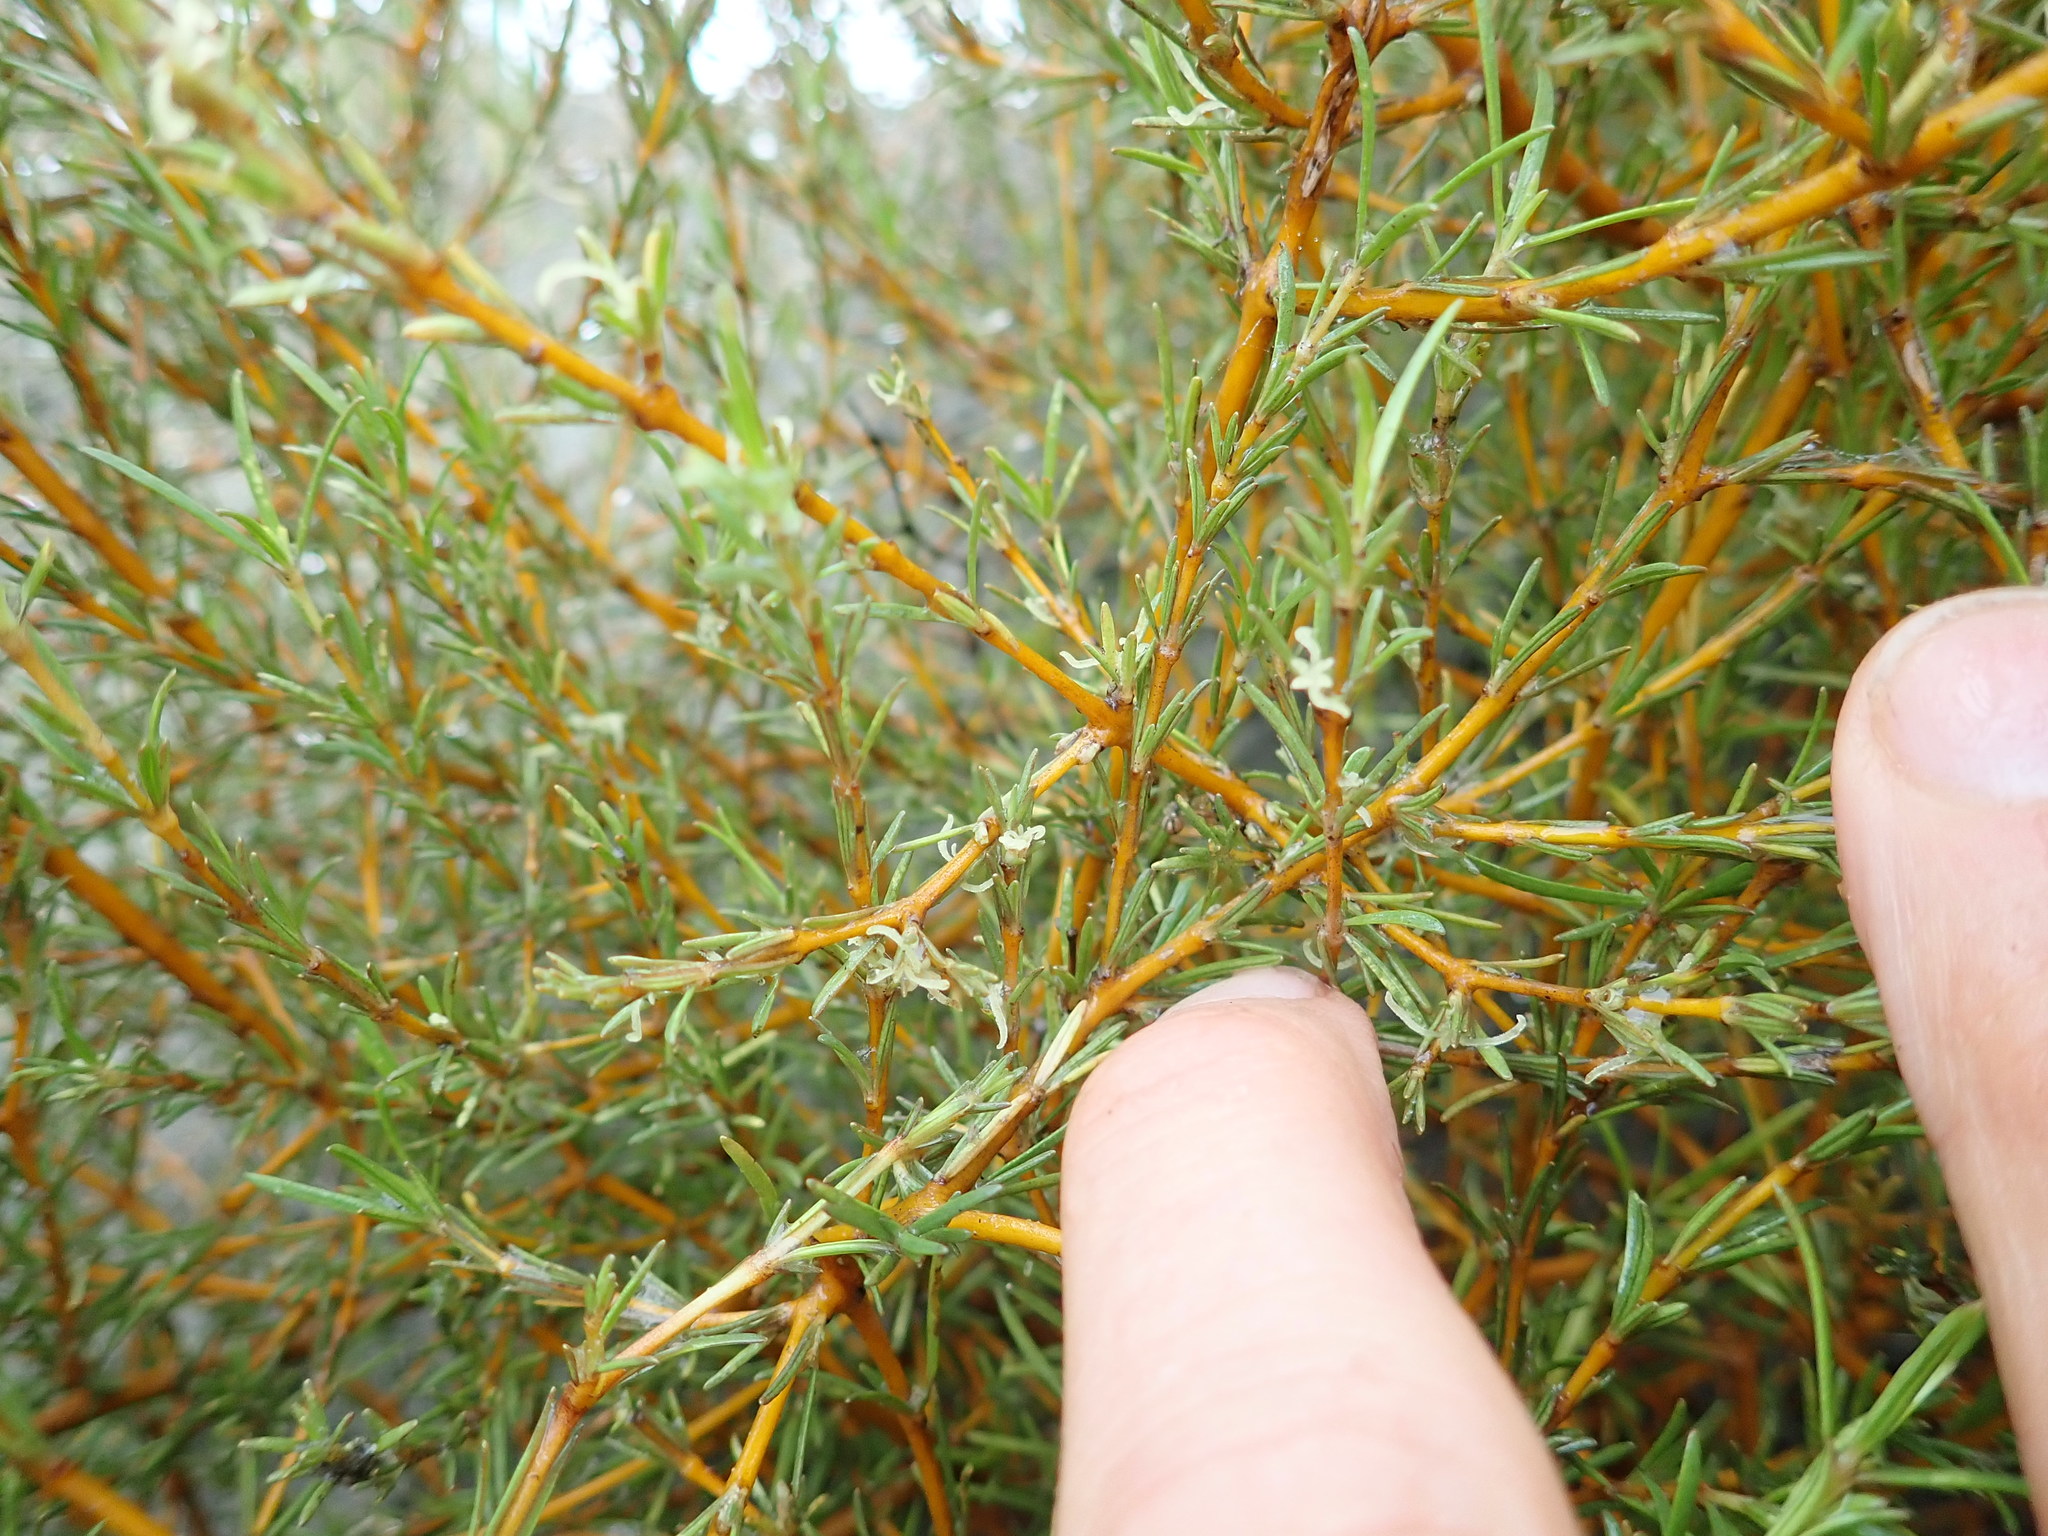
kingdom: Plantae
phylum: Tracheophyta
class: Magnoliopsida
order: Gentianales
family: Rubiaceae
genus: Coprosma
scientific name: Coprosma acerosa
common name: Sand coprosma
